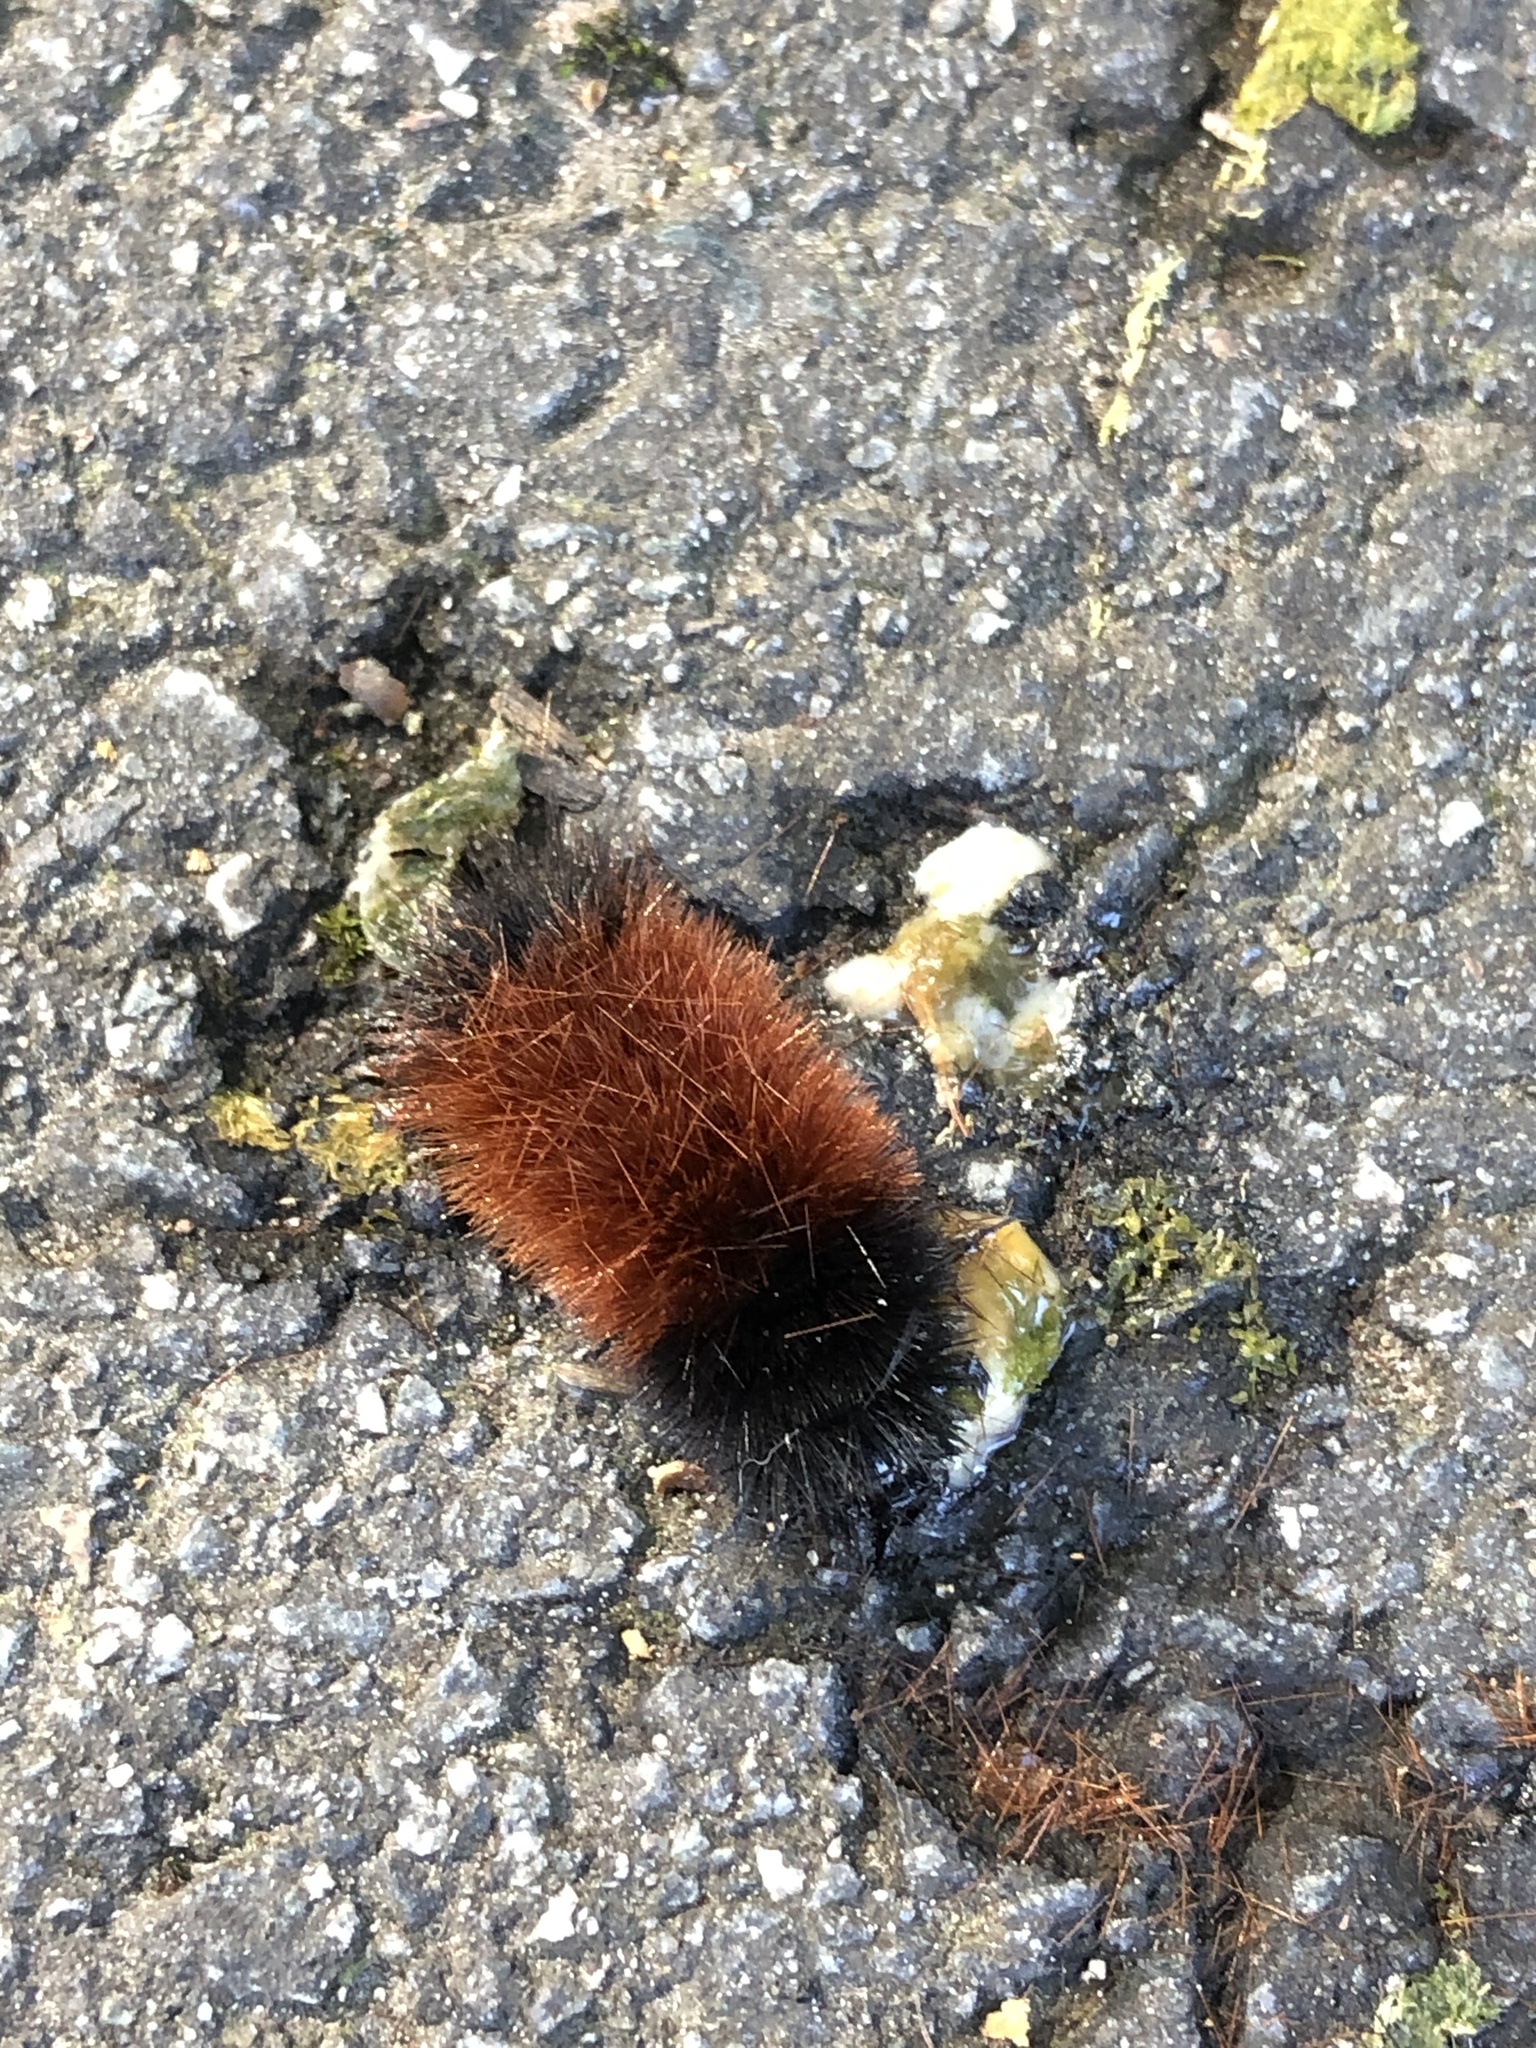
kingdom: Animalia
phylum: Arthropoda
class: Insecta
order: Lepidoptera
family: Erebidae
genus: Pyrrharctia
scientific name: Pyrrharctia isabella
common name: Isabella tiger moth
